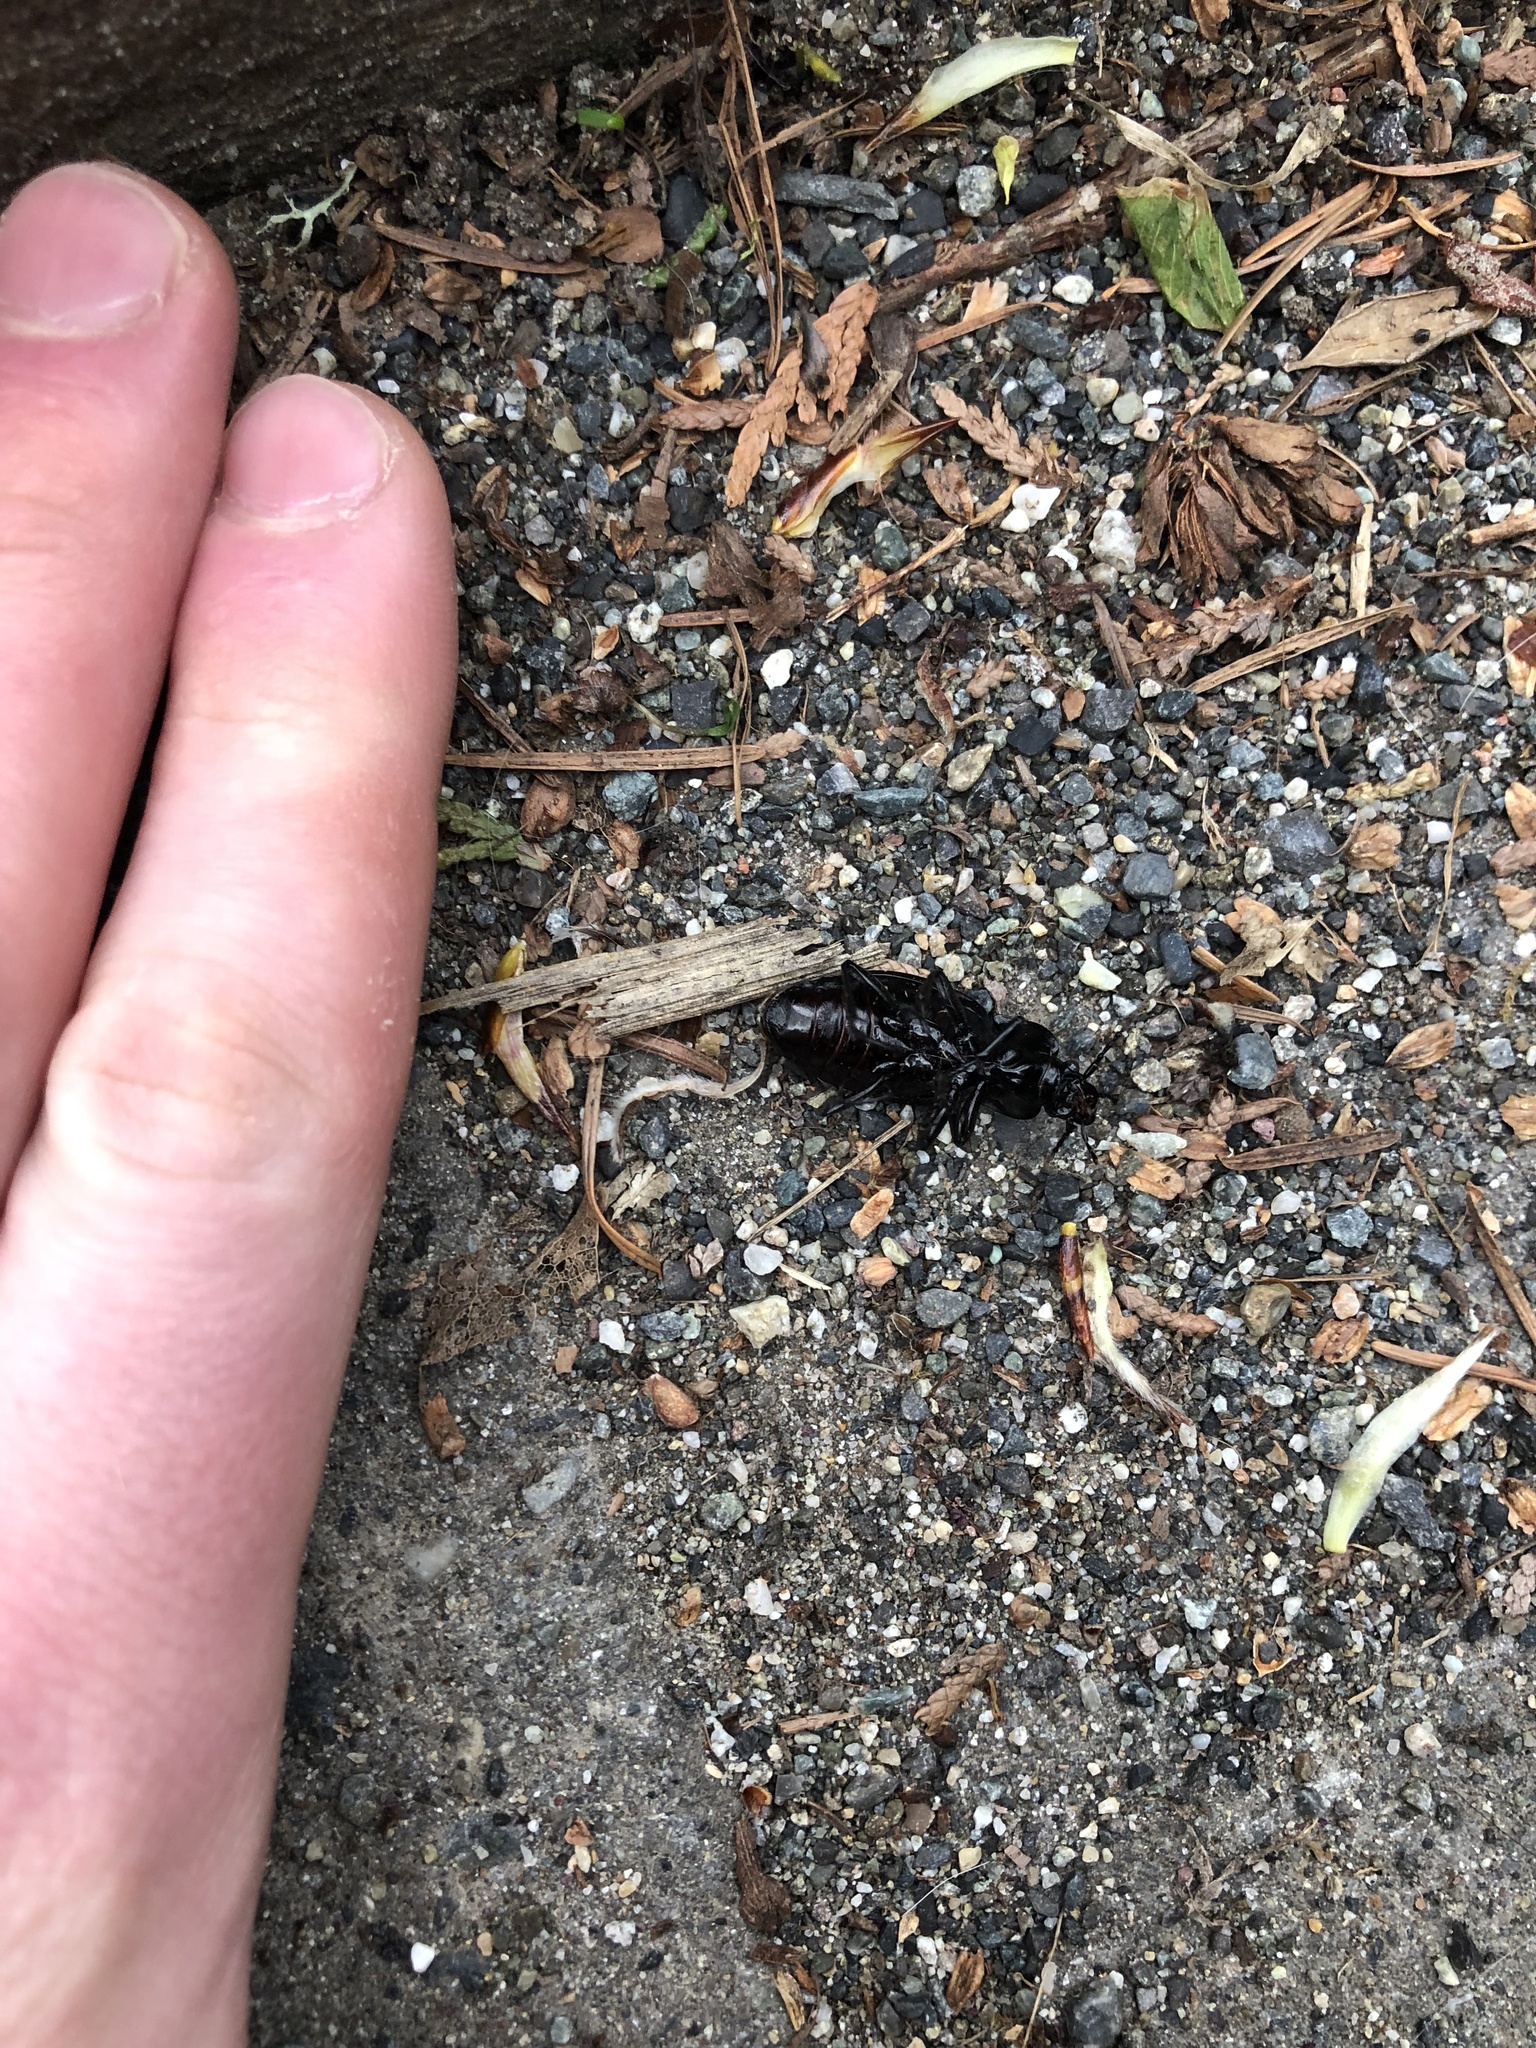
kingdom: Animalia
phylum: Arthropoda
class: Insecta
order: Coleoptera
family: Carabidae
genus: Carabus
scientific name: Carabus nemoralis
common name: European ground beetle
